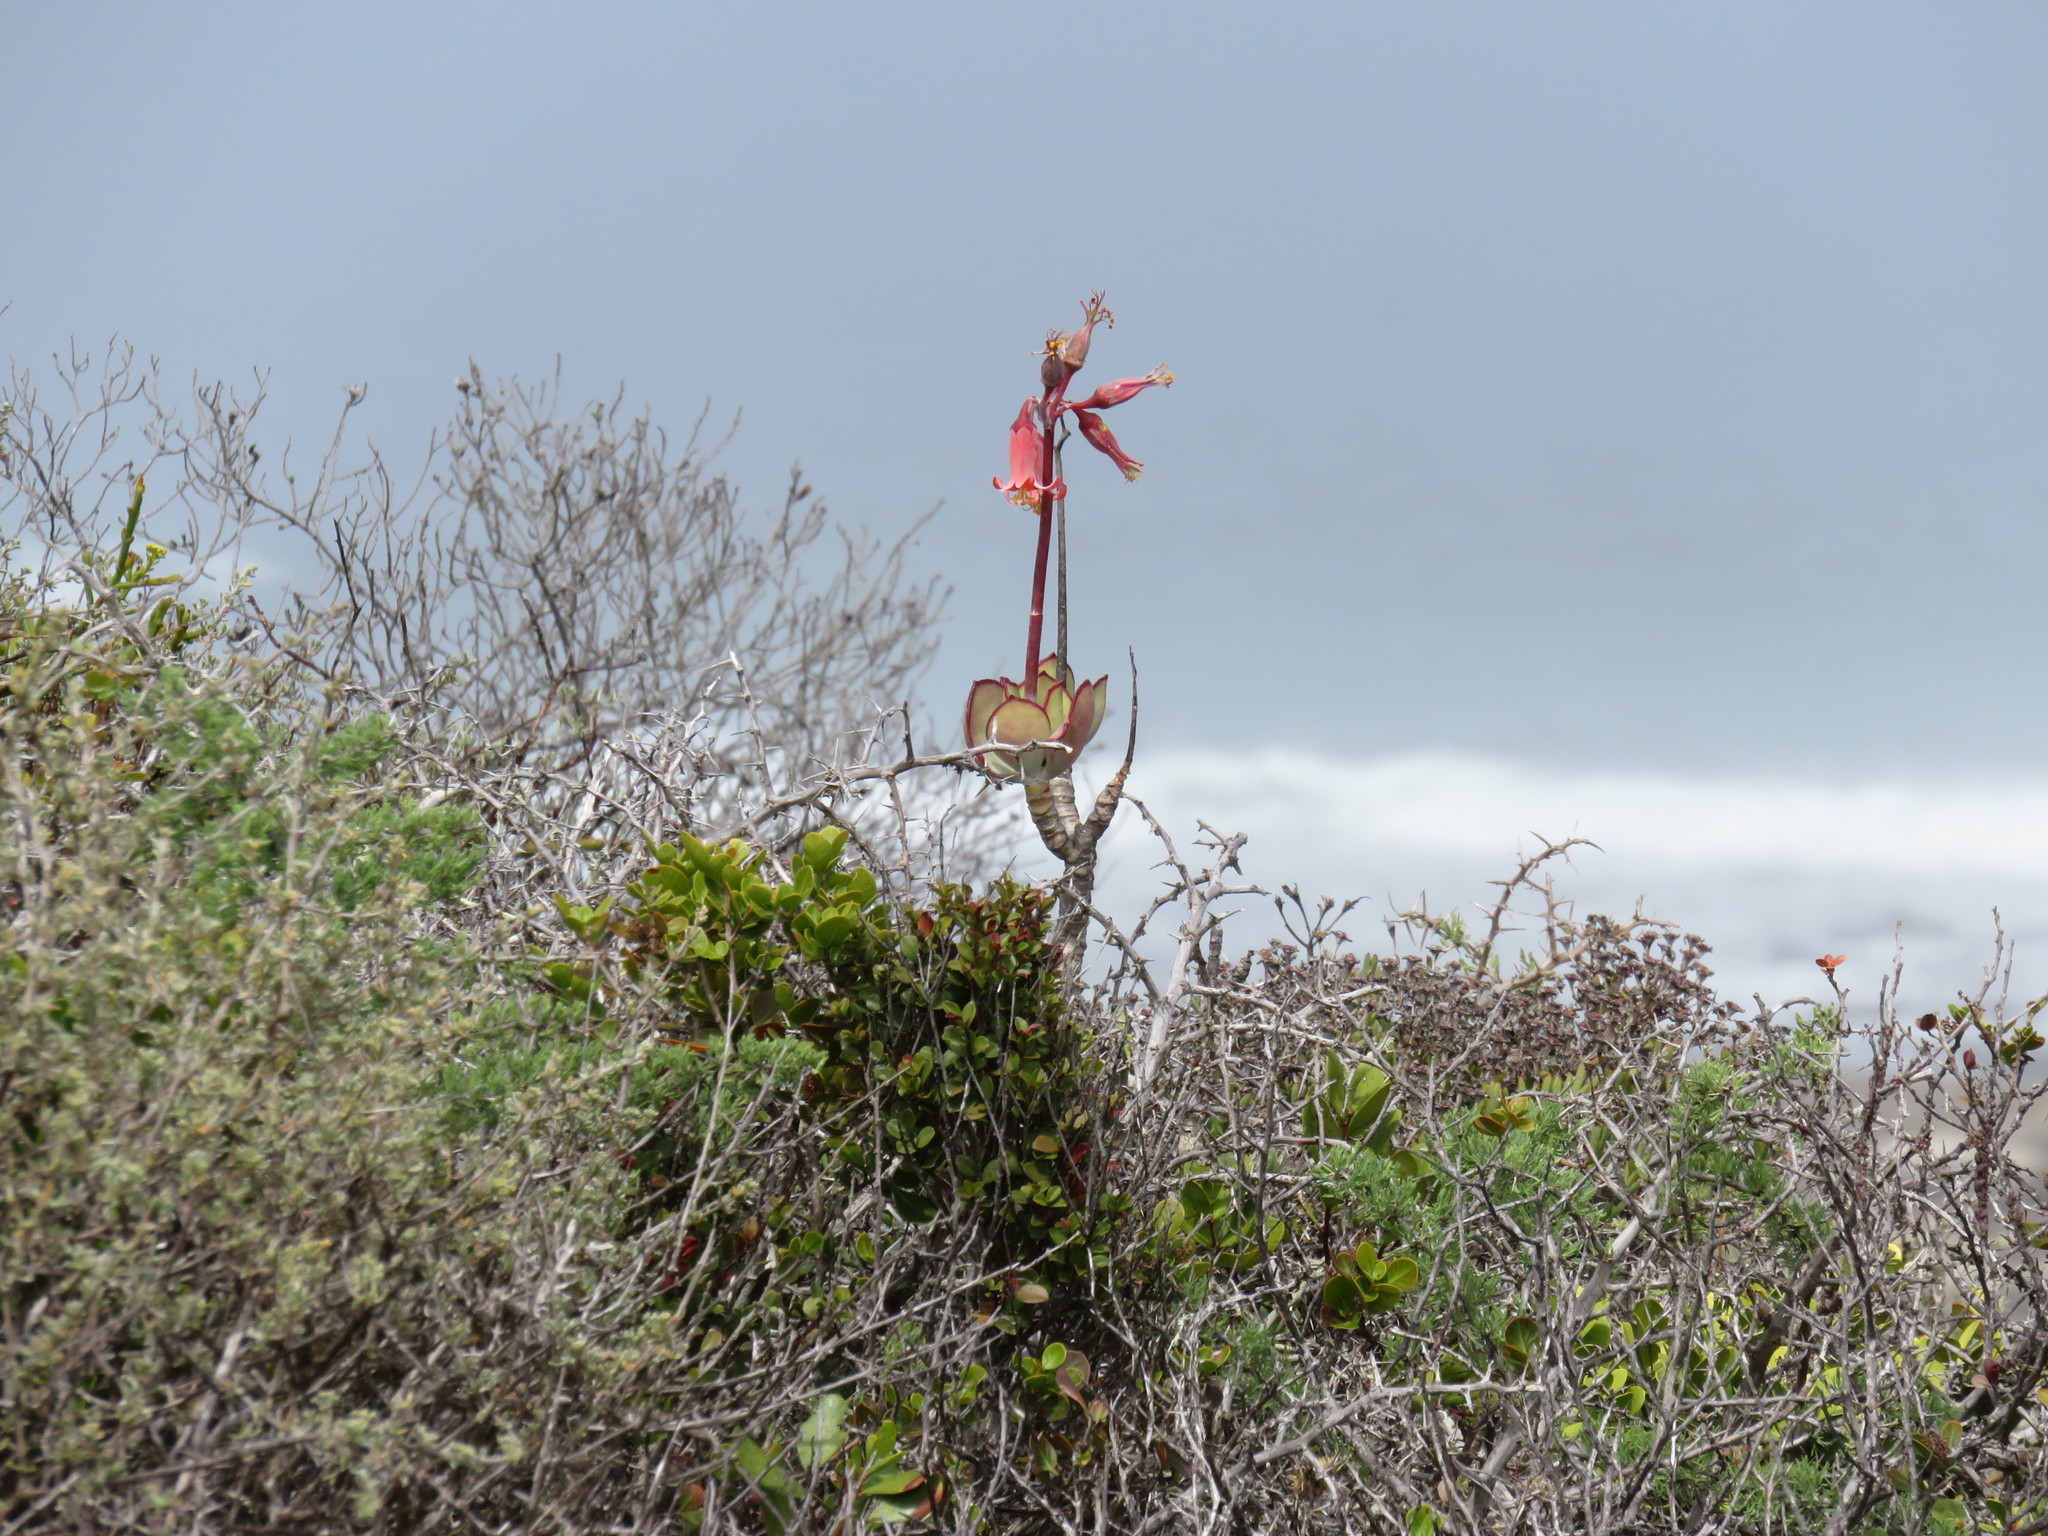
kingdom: Plantae
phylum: Tracheophyta
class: Magnoliopsida
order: Saxifragales
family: Crassulaceae
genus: Cotyledon
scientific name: Cotyledon orbiculata
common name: Pig's ear
